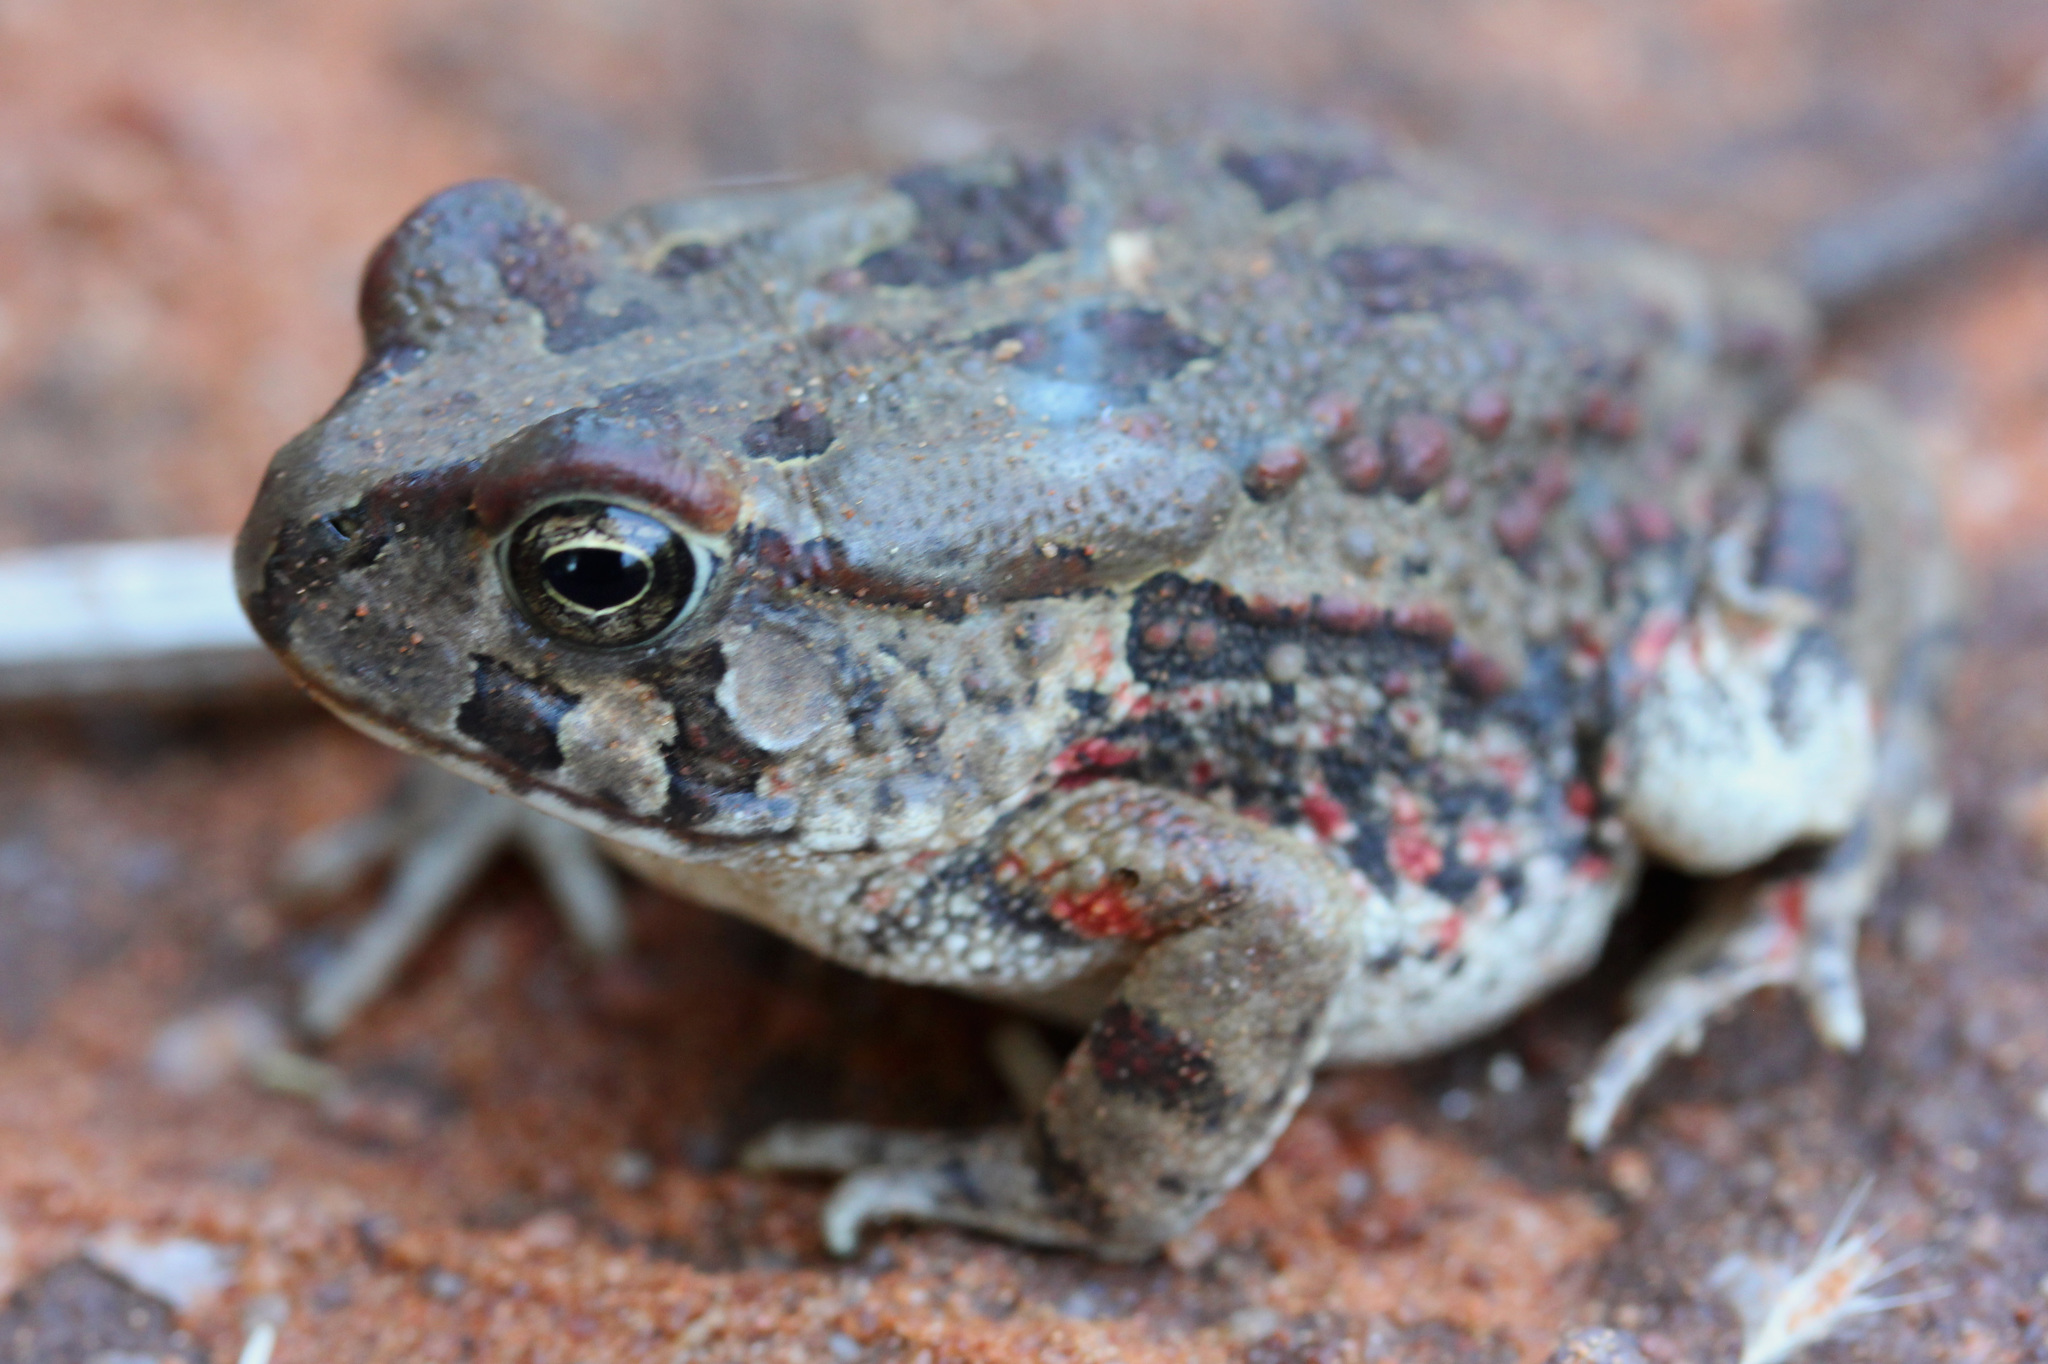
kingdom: Animalia
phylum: Chordata
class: Amphibia
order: Anura
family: Bufonidae
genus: Sclerophrys
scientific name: Sclerophrys poweri
